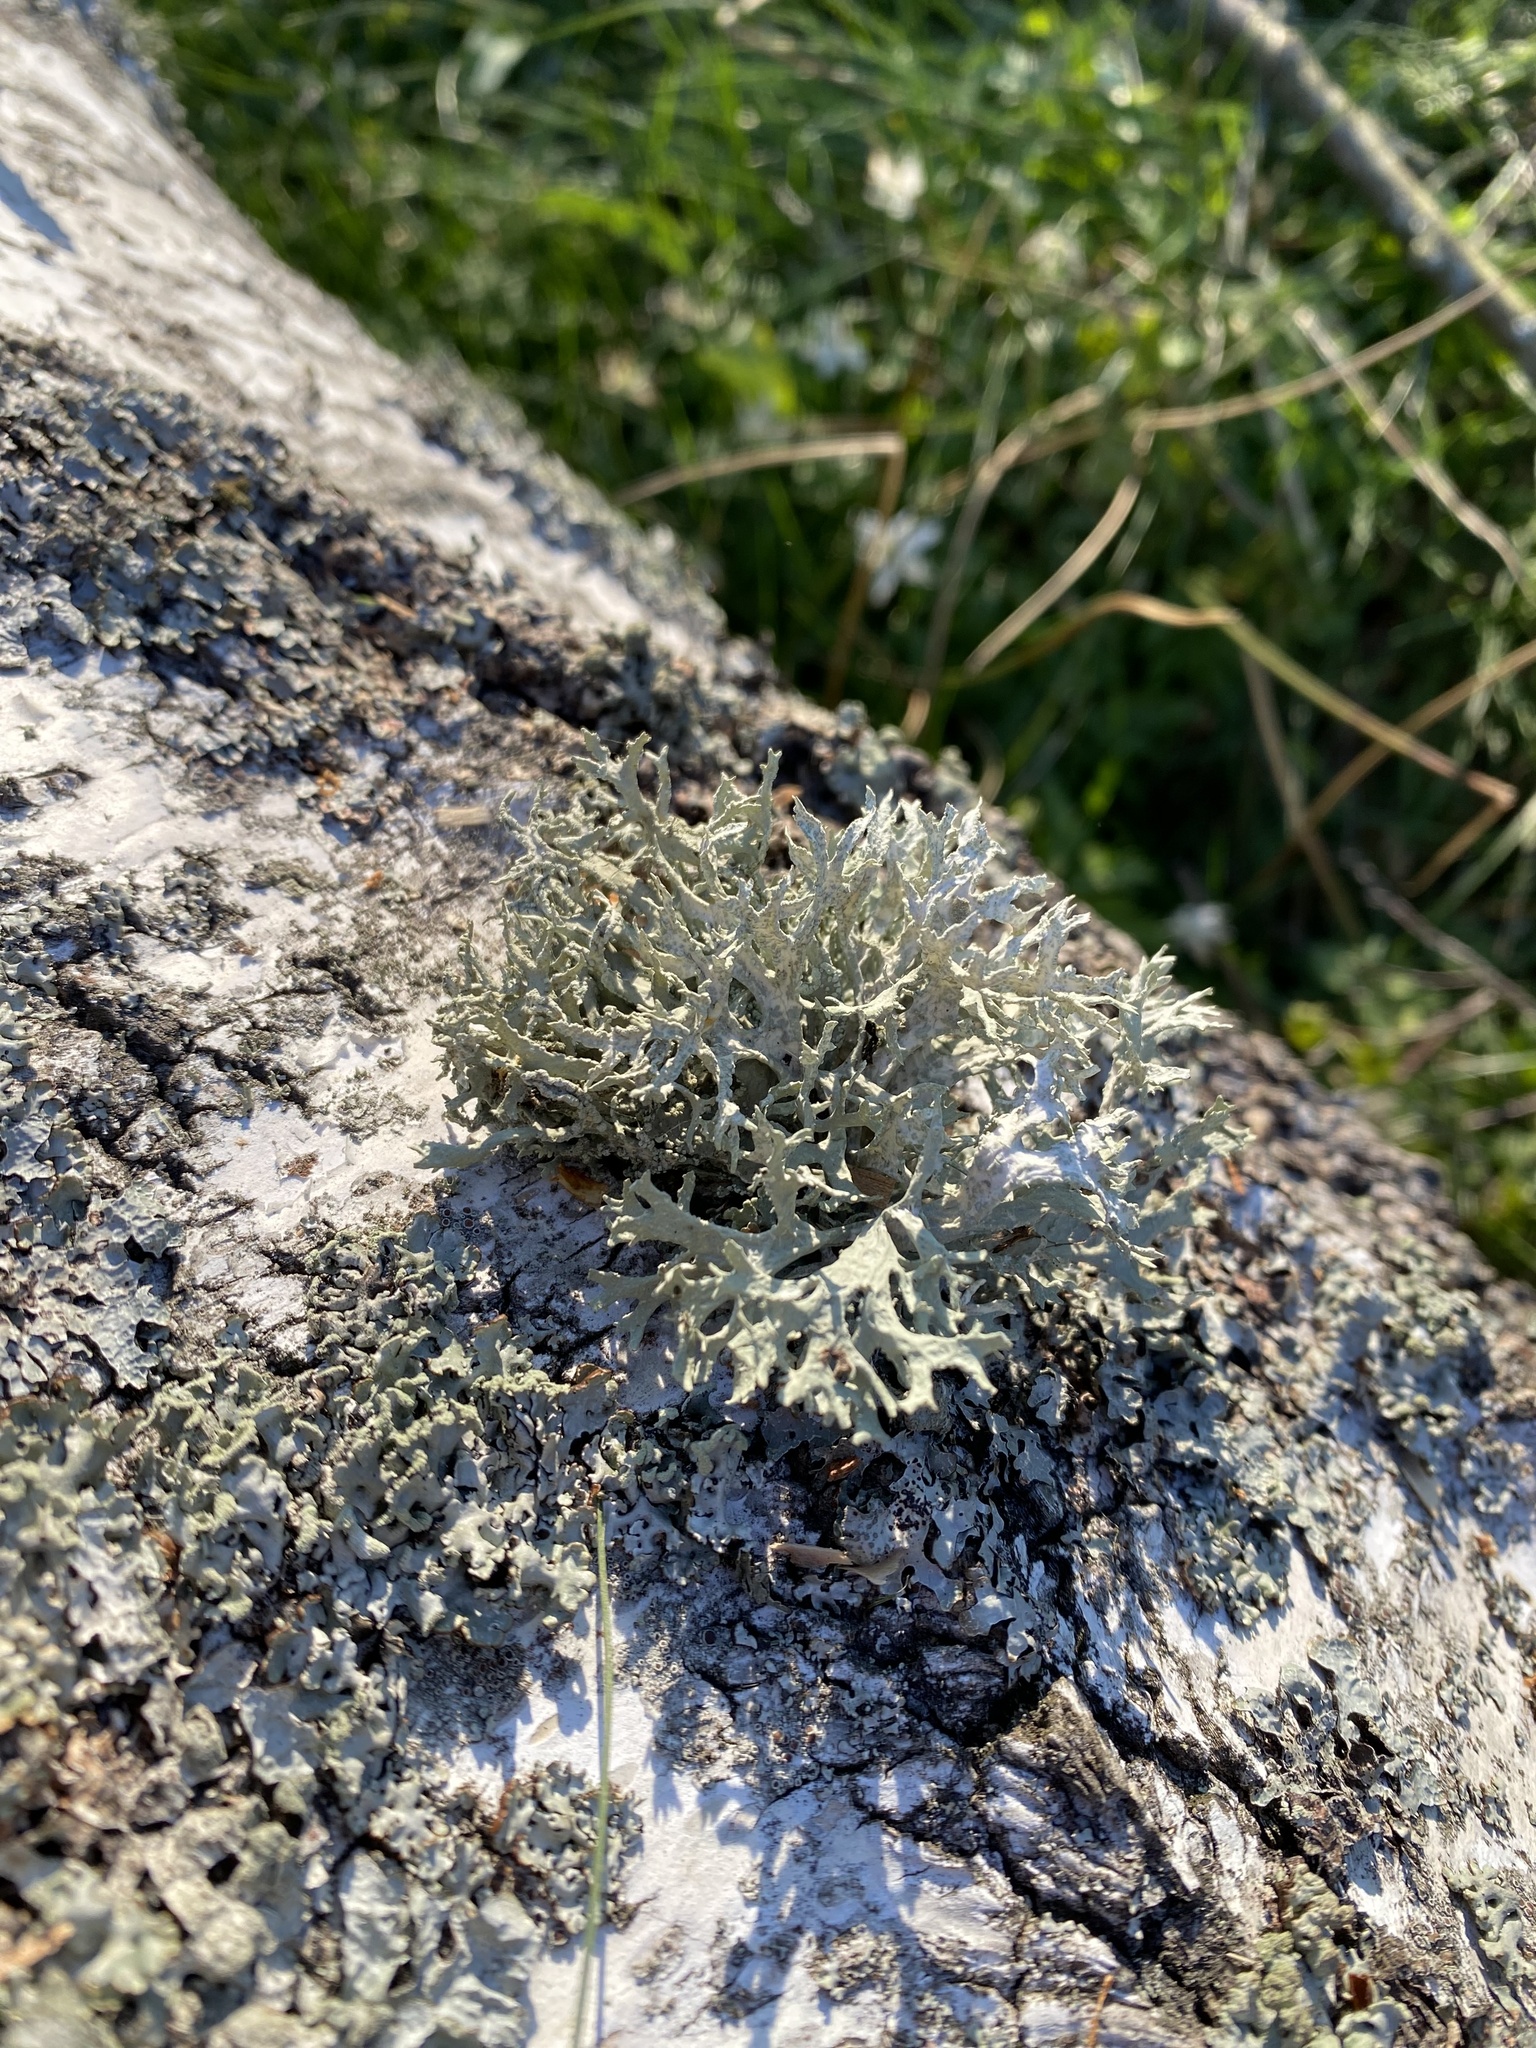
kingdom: Fungi
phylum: Ascomycota
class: Lecanoromycetes
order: Lecanorales
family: Parmeliaceae
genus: Evernia
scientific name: Evernia prunastri
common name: Oak moss
